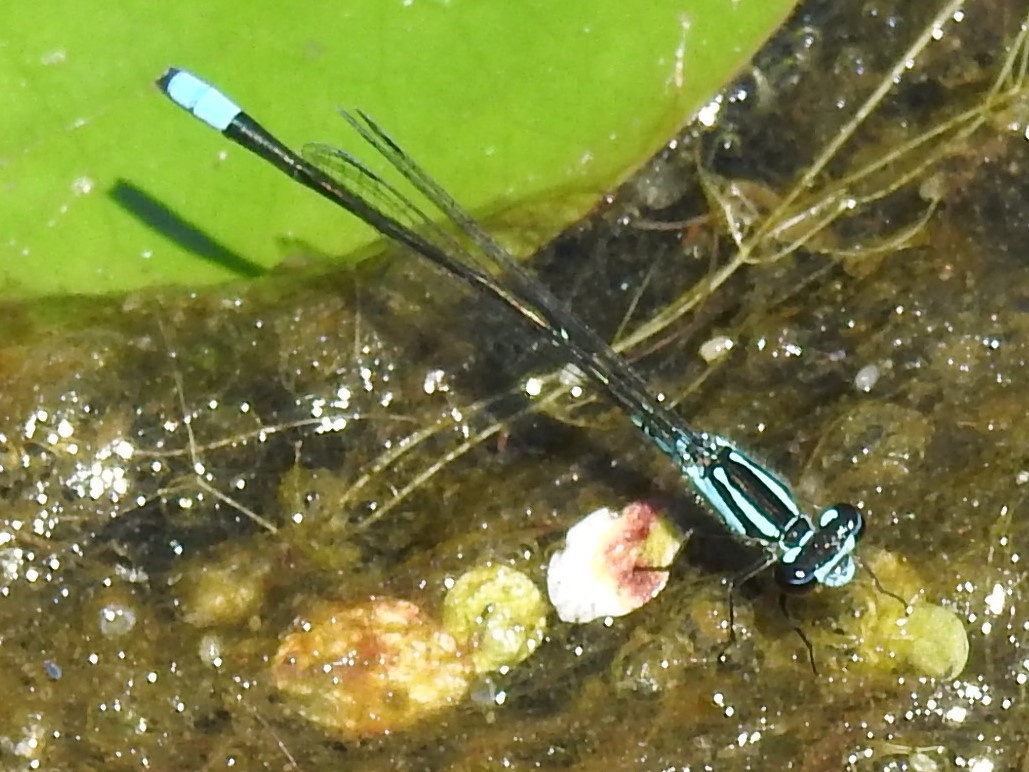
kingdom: Animalia
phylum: Arthropoda
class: Insecta
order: Odonata
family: Coenagrionidae
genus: Enallagma
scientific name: Enallagma geminatum
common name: Skimming bluet
